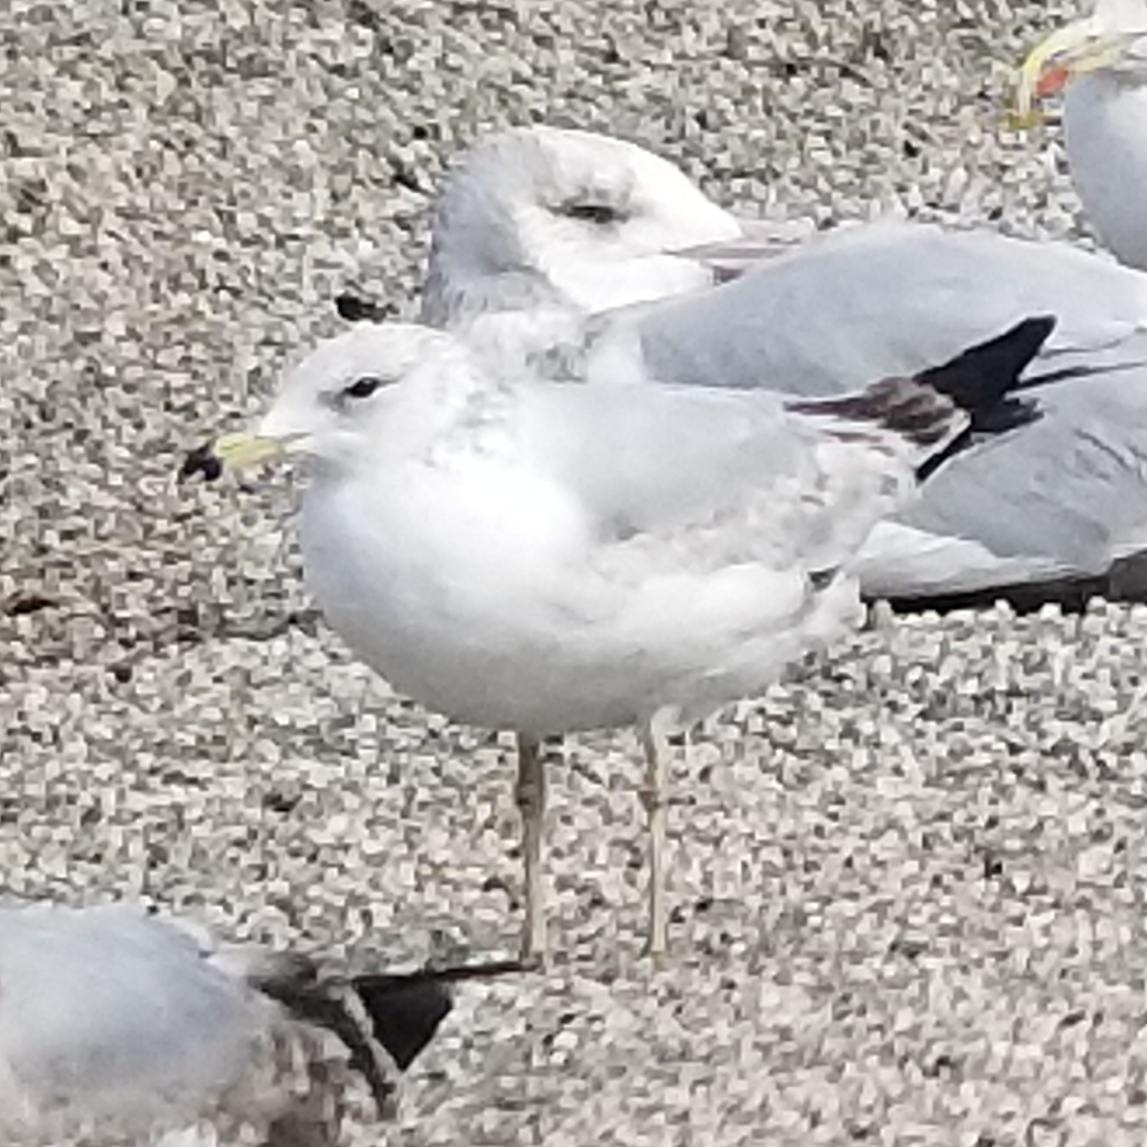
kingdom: Animalia
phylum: Chordata
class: Aves
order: Charadriiformes
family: Laridae
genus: Larus
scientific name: Larus delawarensis
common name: Ring-billed gull
